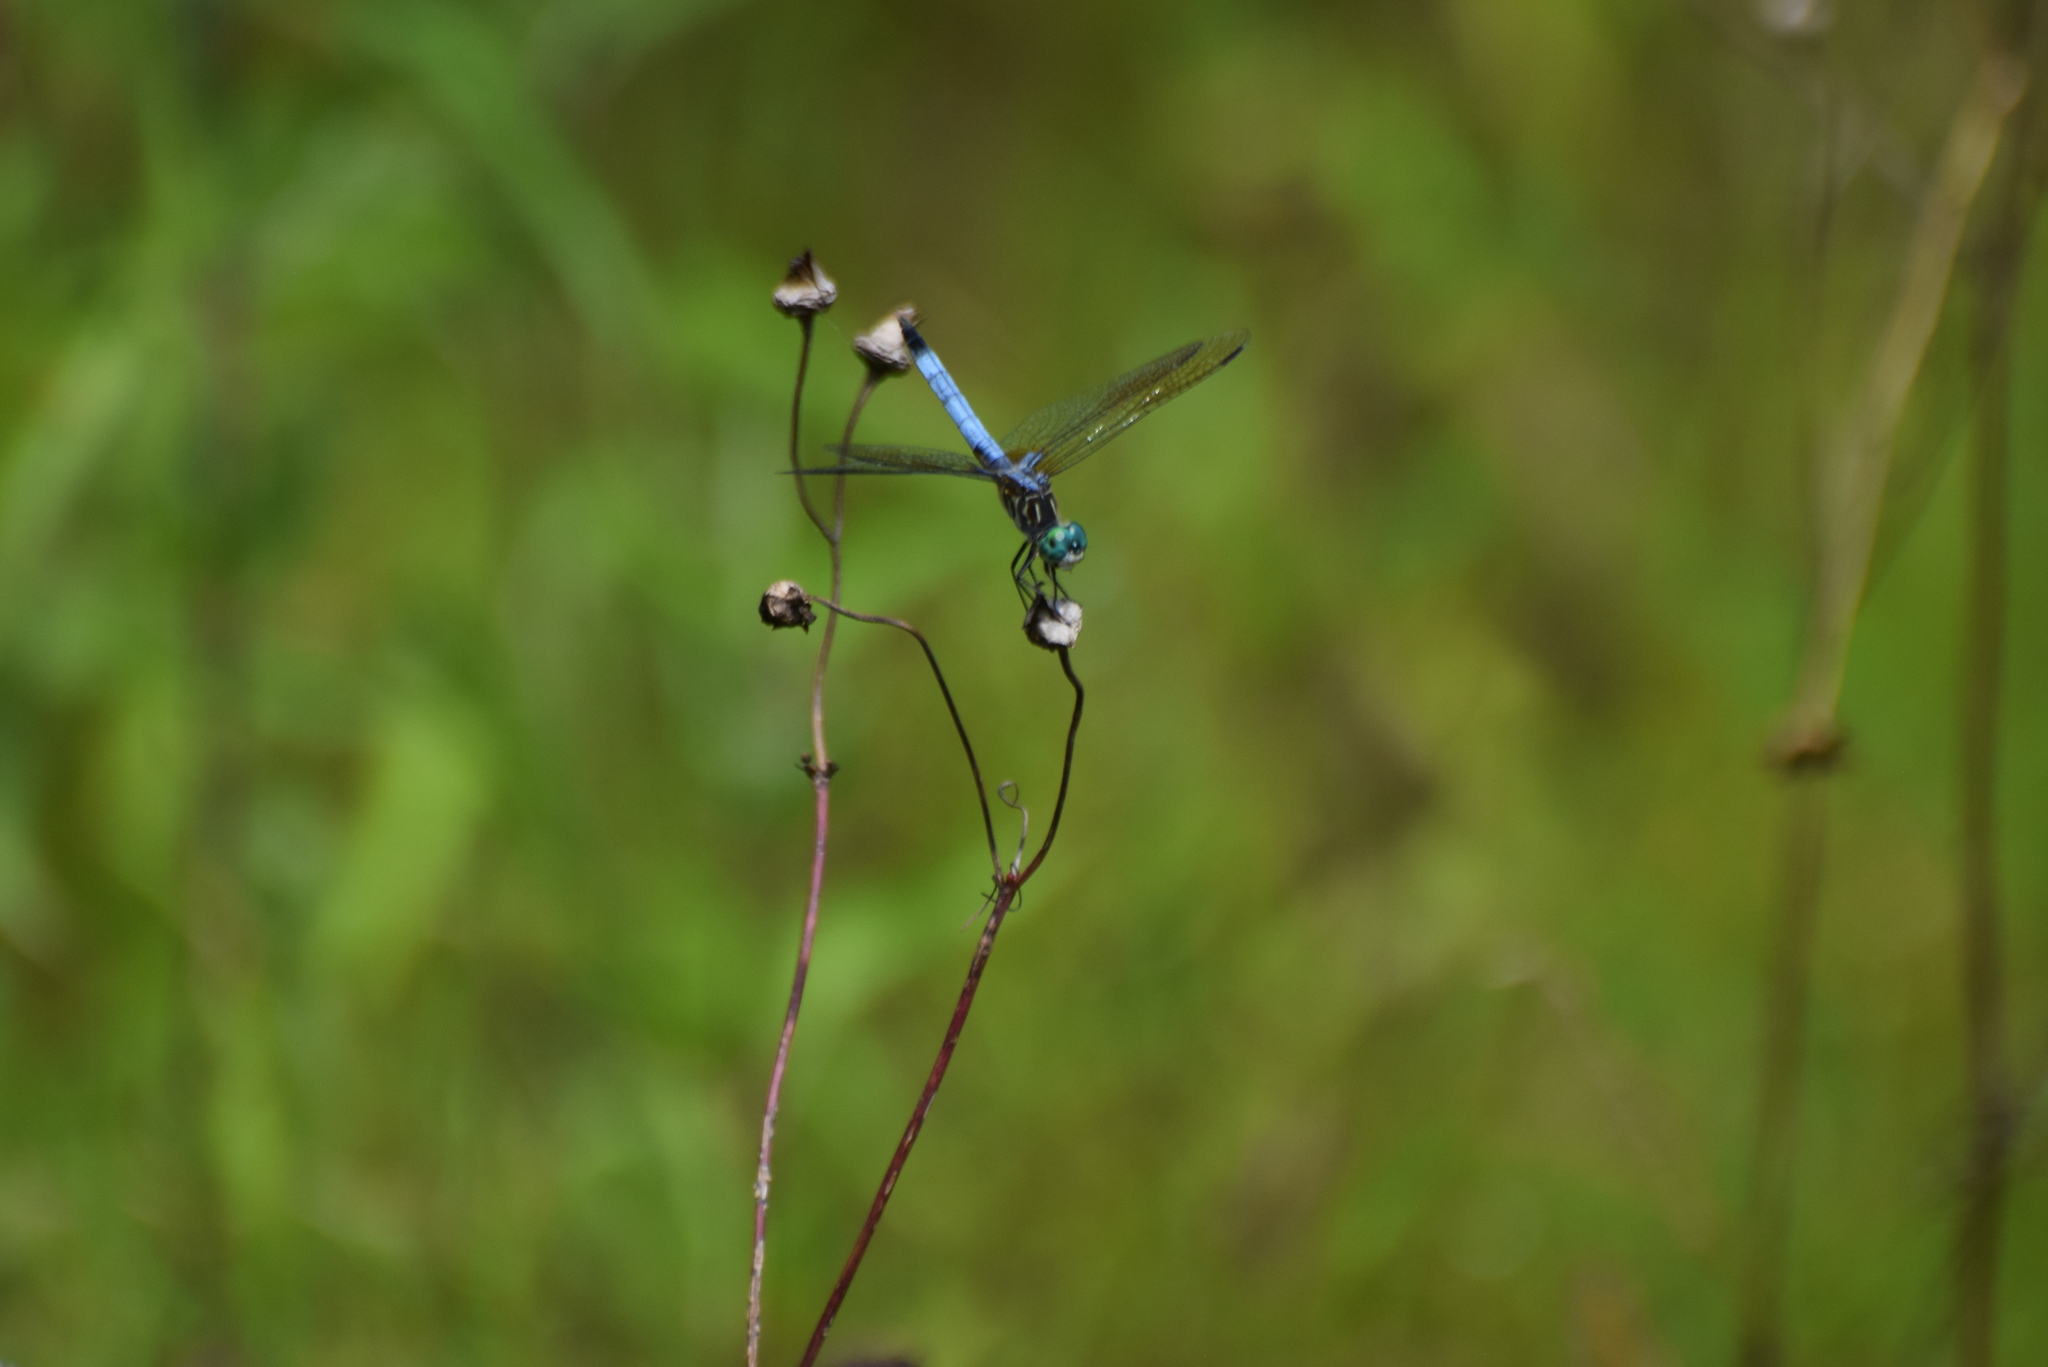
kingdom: Animalia
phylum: Arthropoda
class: Insecta
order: Odonata
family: Libellulidae
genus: Pachydiplax
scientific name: Pachydiplax longipennis
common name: Blue dasher
